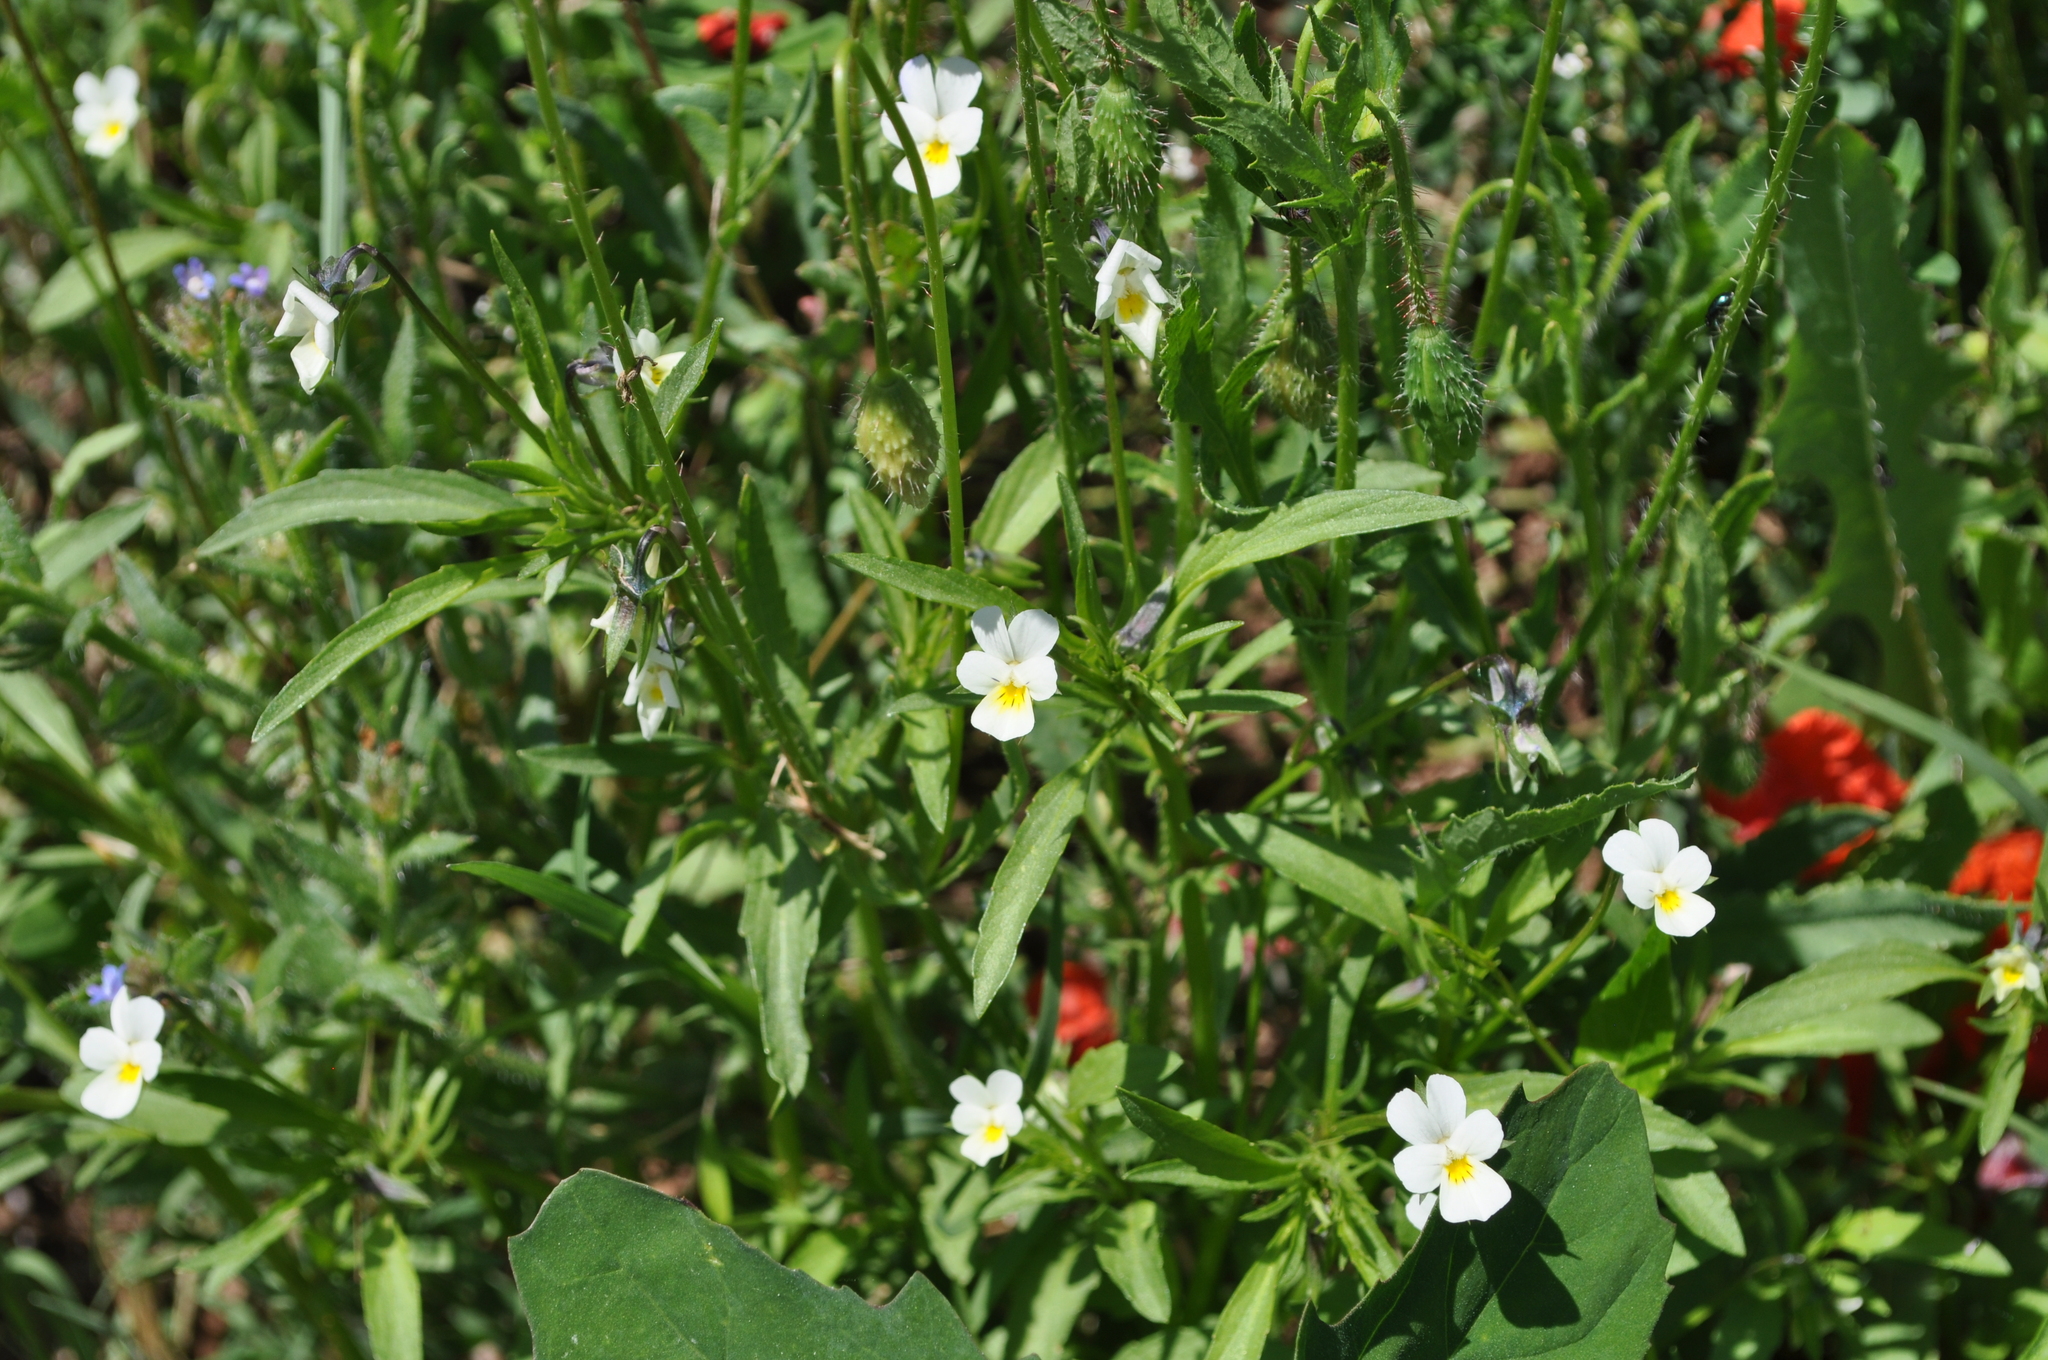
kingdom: Plantae
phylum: Tracheophyta
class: Magnoliopsida
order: Malpighiales
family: Violaceae
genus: Viola
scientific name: Viola arvensis
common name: Field pansy
